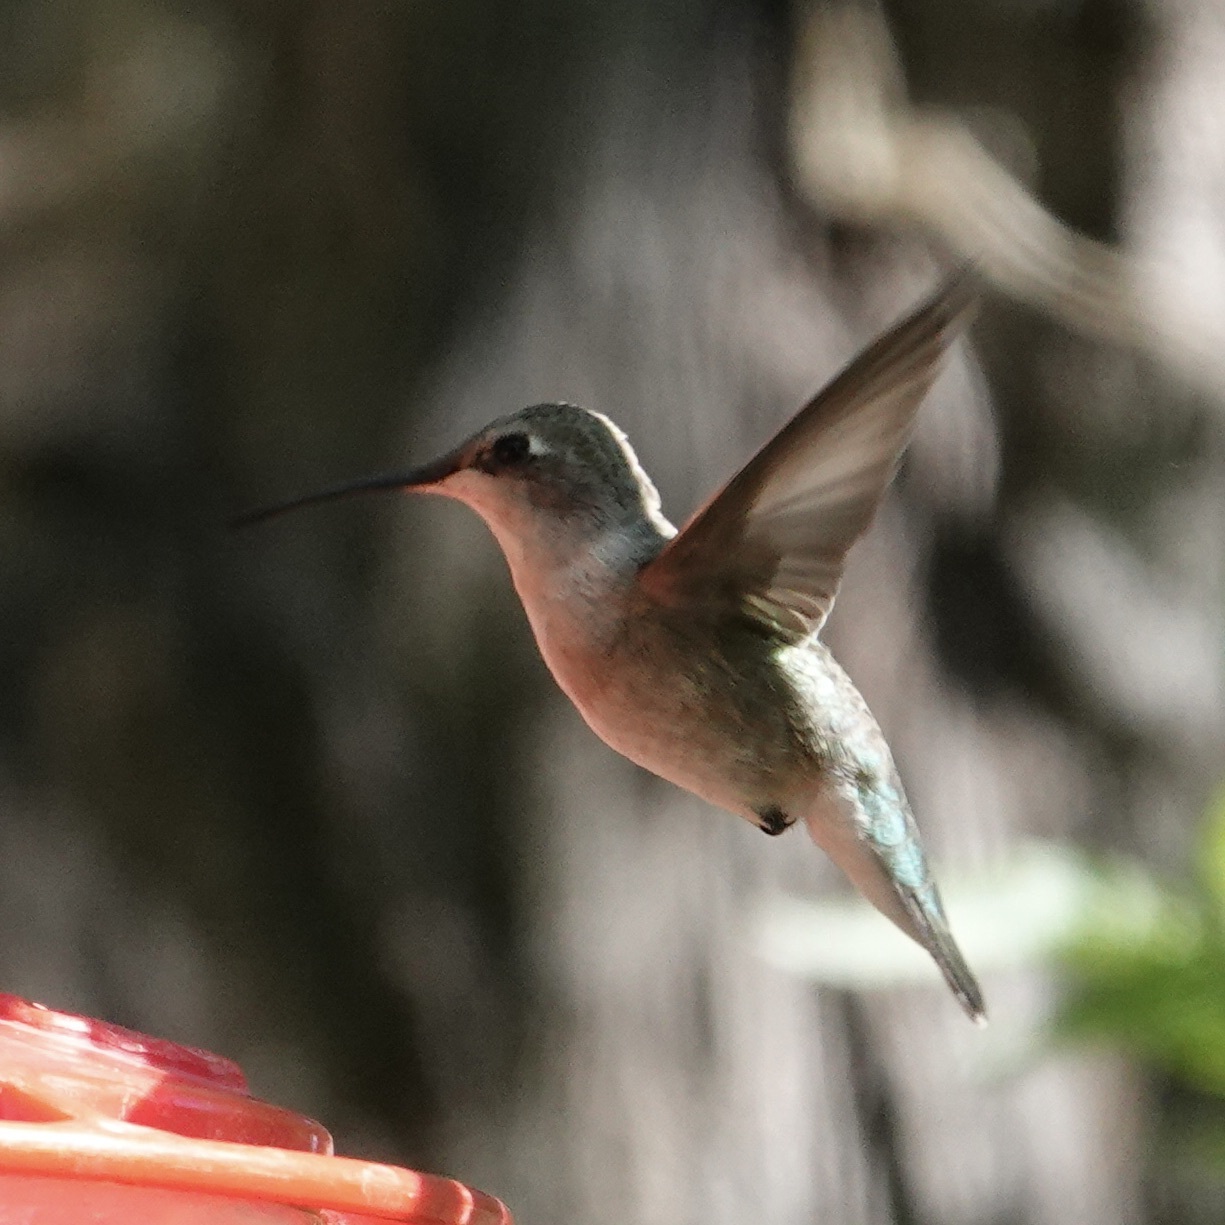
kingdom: Animalia
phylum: Chordata
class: Aves
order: Apodiformes
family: Trochilidae
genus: Archilochus
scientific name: Archilochus alexandri
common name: Black-chinned hummingbird
